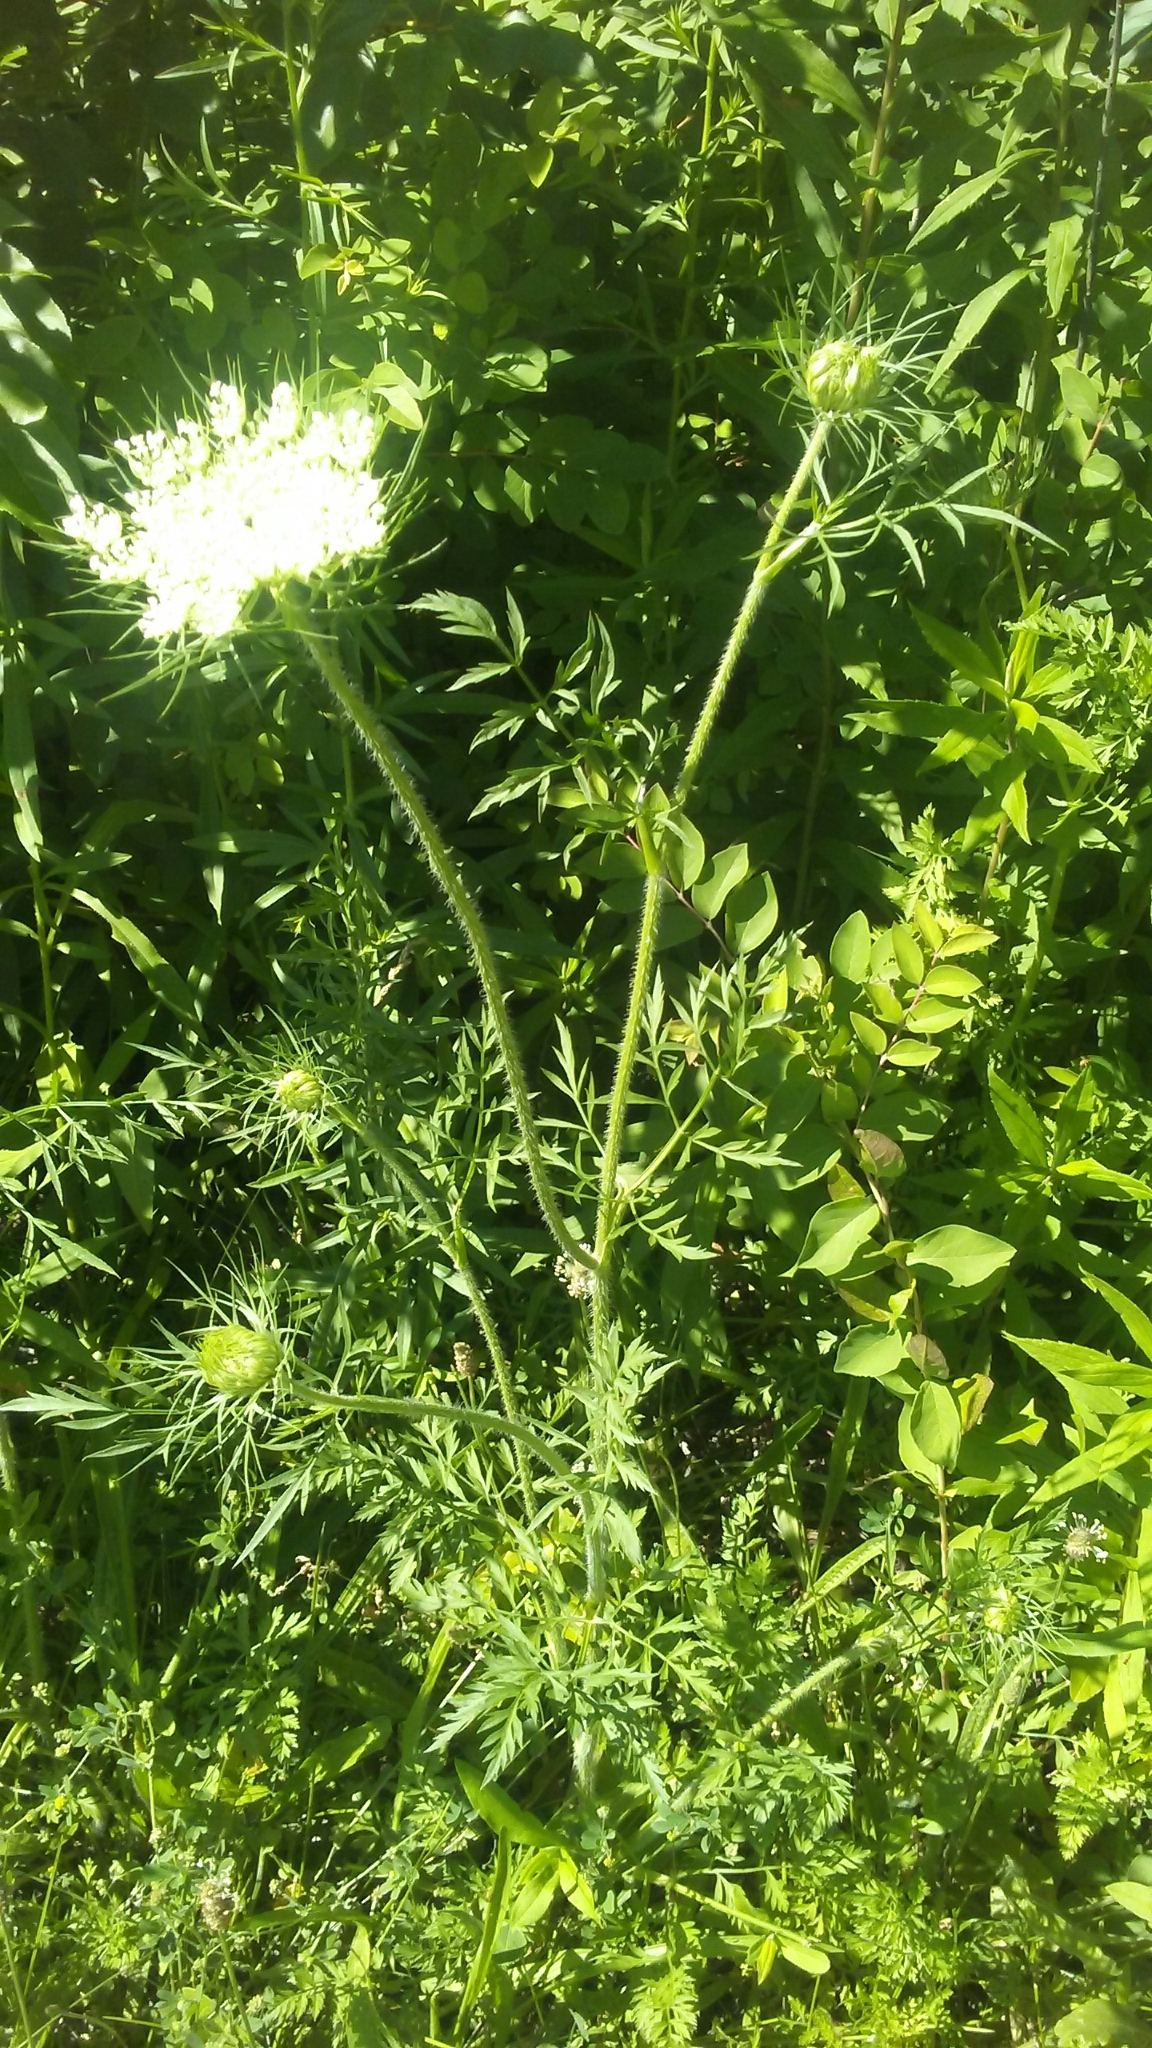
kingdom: Plantae
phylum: Tracheophyta
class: Magnoliopsida
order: Apiales
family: Apiaceae
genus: Daucus
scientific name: Daucus carota
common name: Wild carrot
